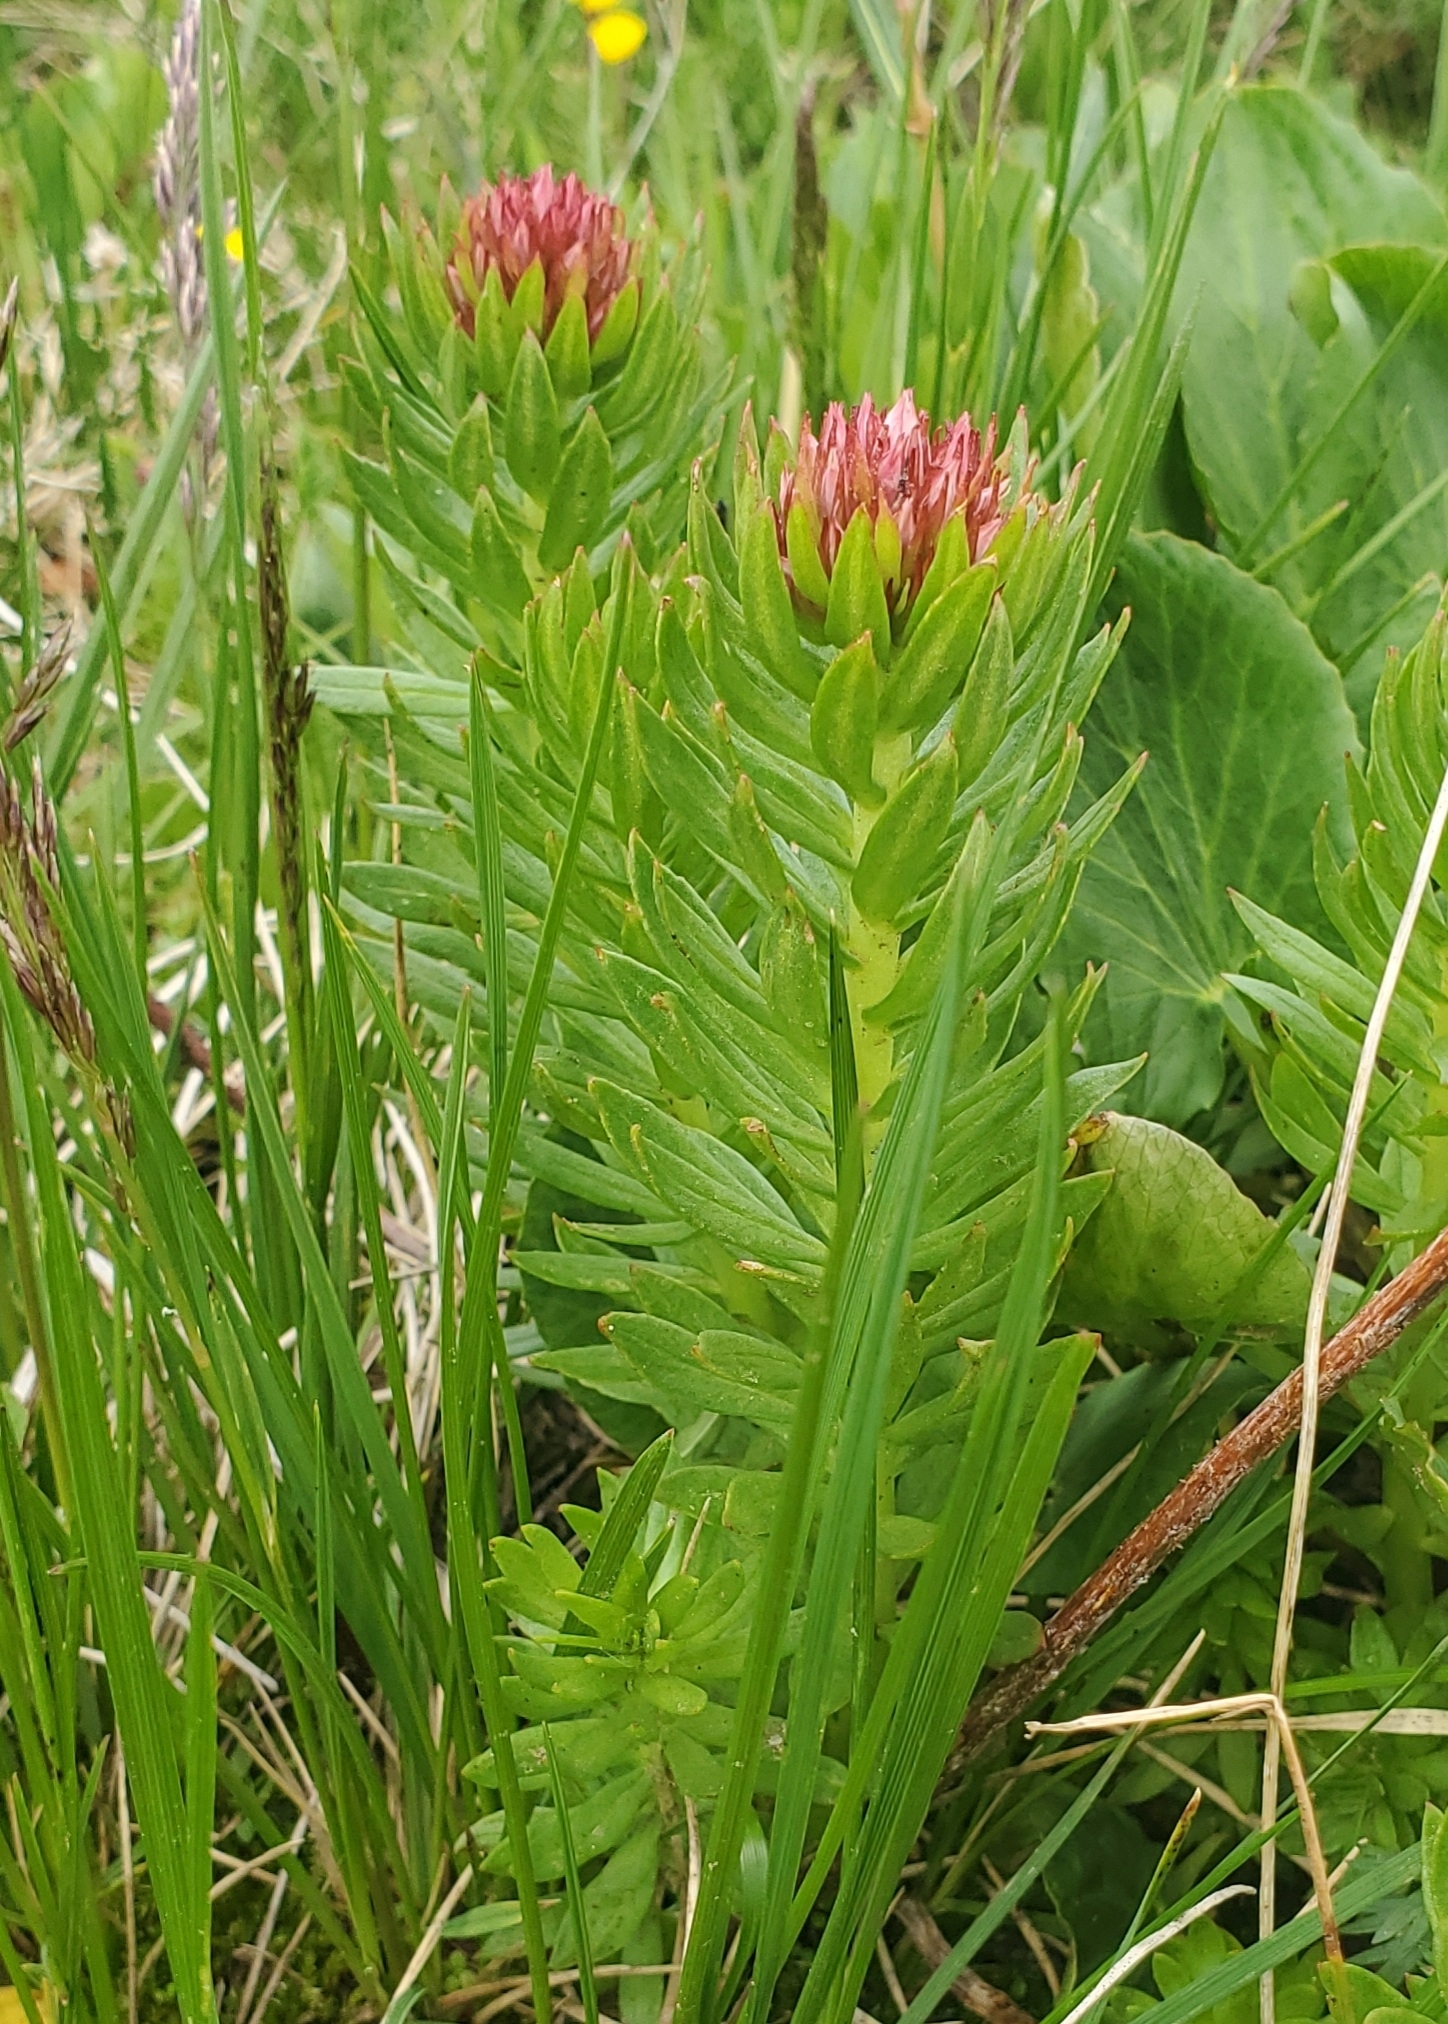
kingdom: Plantae
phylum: Tracheophyta
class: Magnoliopsida
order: Saxifragales
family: Crassulaceae
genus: Rhodiola
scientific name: Rhodiola rhodantha
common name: Red orpine
